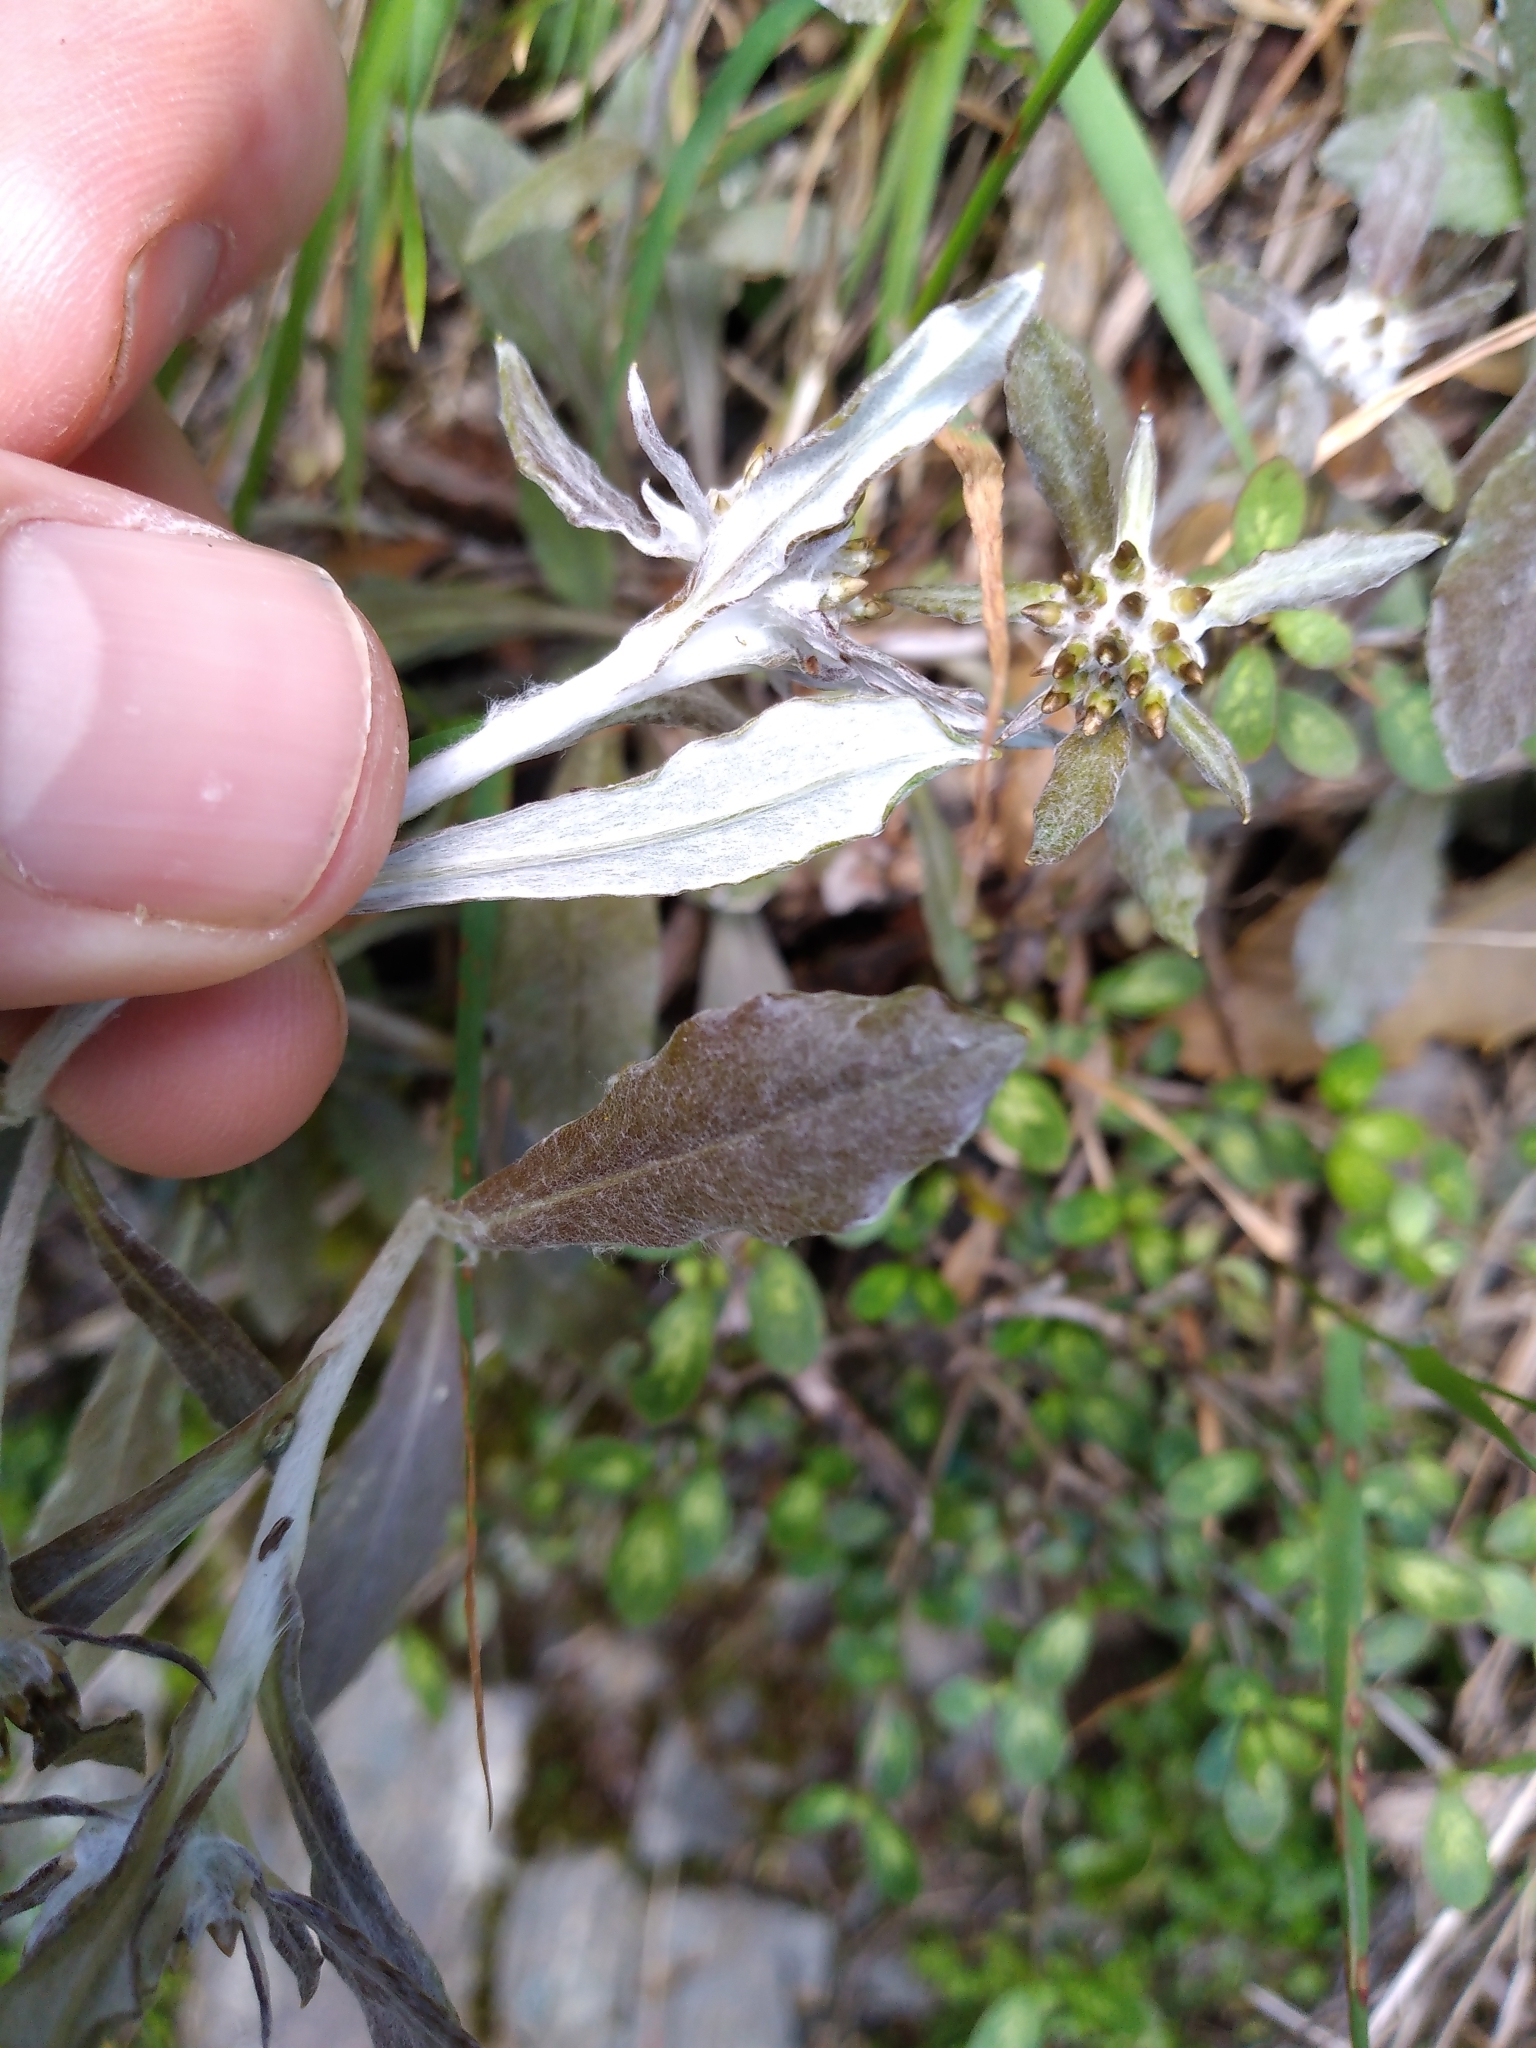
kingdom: Plantae
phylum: Tracheophyta
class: Magnoliopsida
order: Asterales
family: Asteraceae
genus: Euchiton
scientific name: Euchiton ruahinicus
